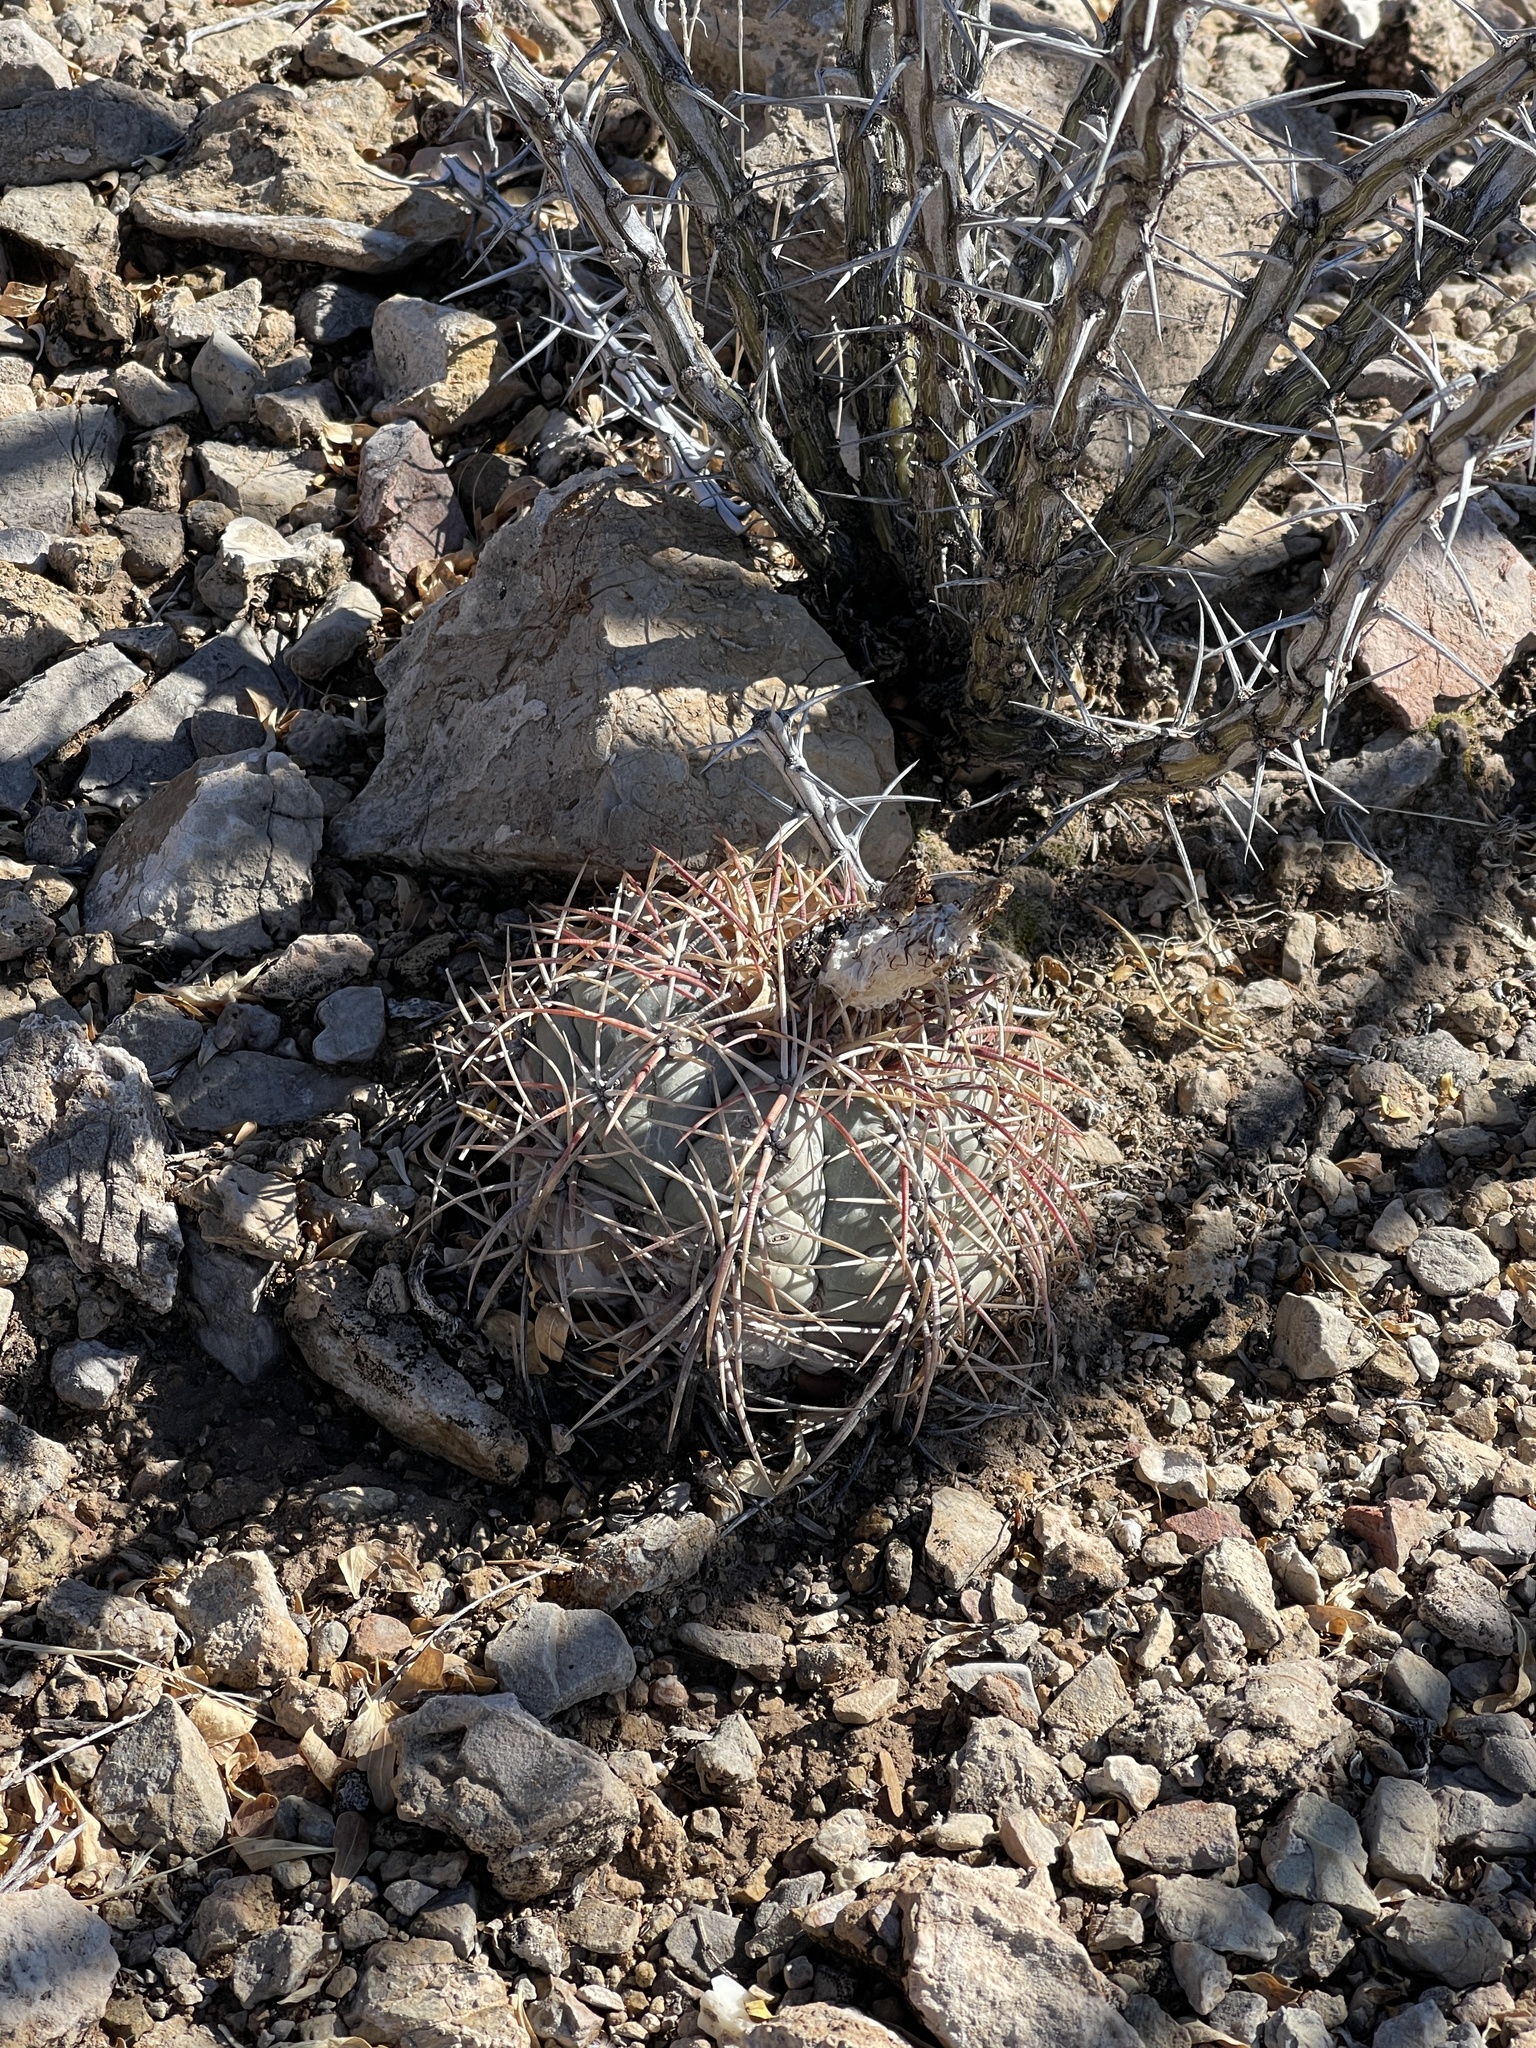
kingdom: Plantae
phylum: Tracheophyta
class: Magnoliopsida
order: Caryophyllales
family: Cactaceae
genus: Echinocactus
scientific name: Echinocactus horizonthalonius
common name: Devilshead
